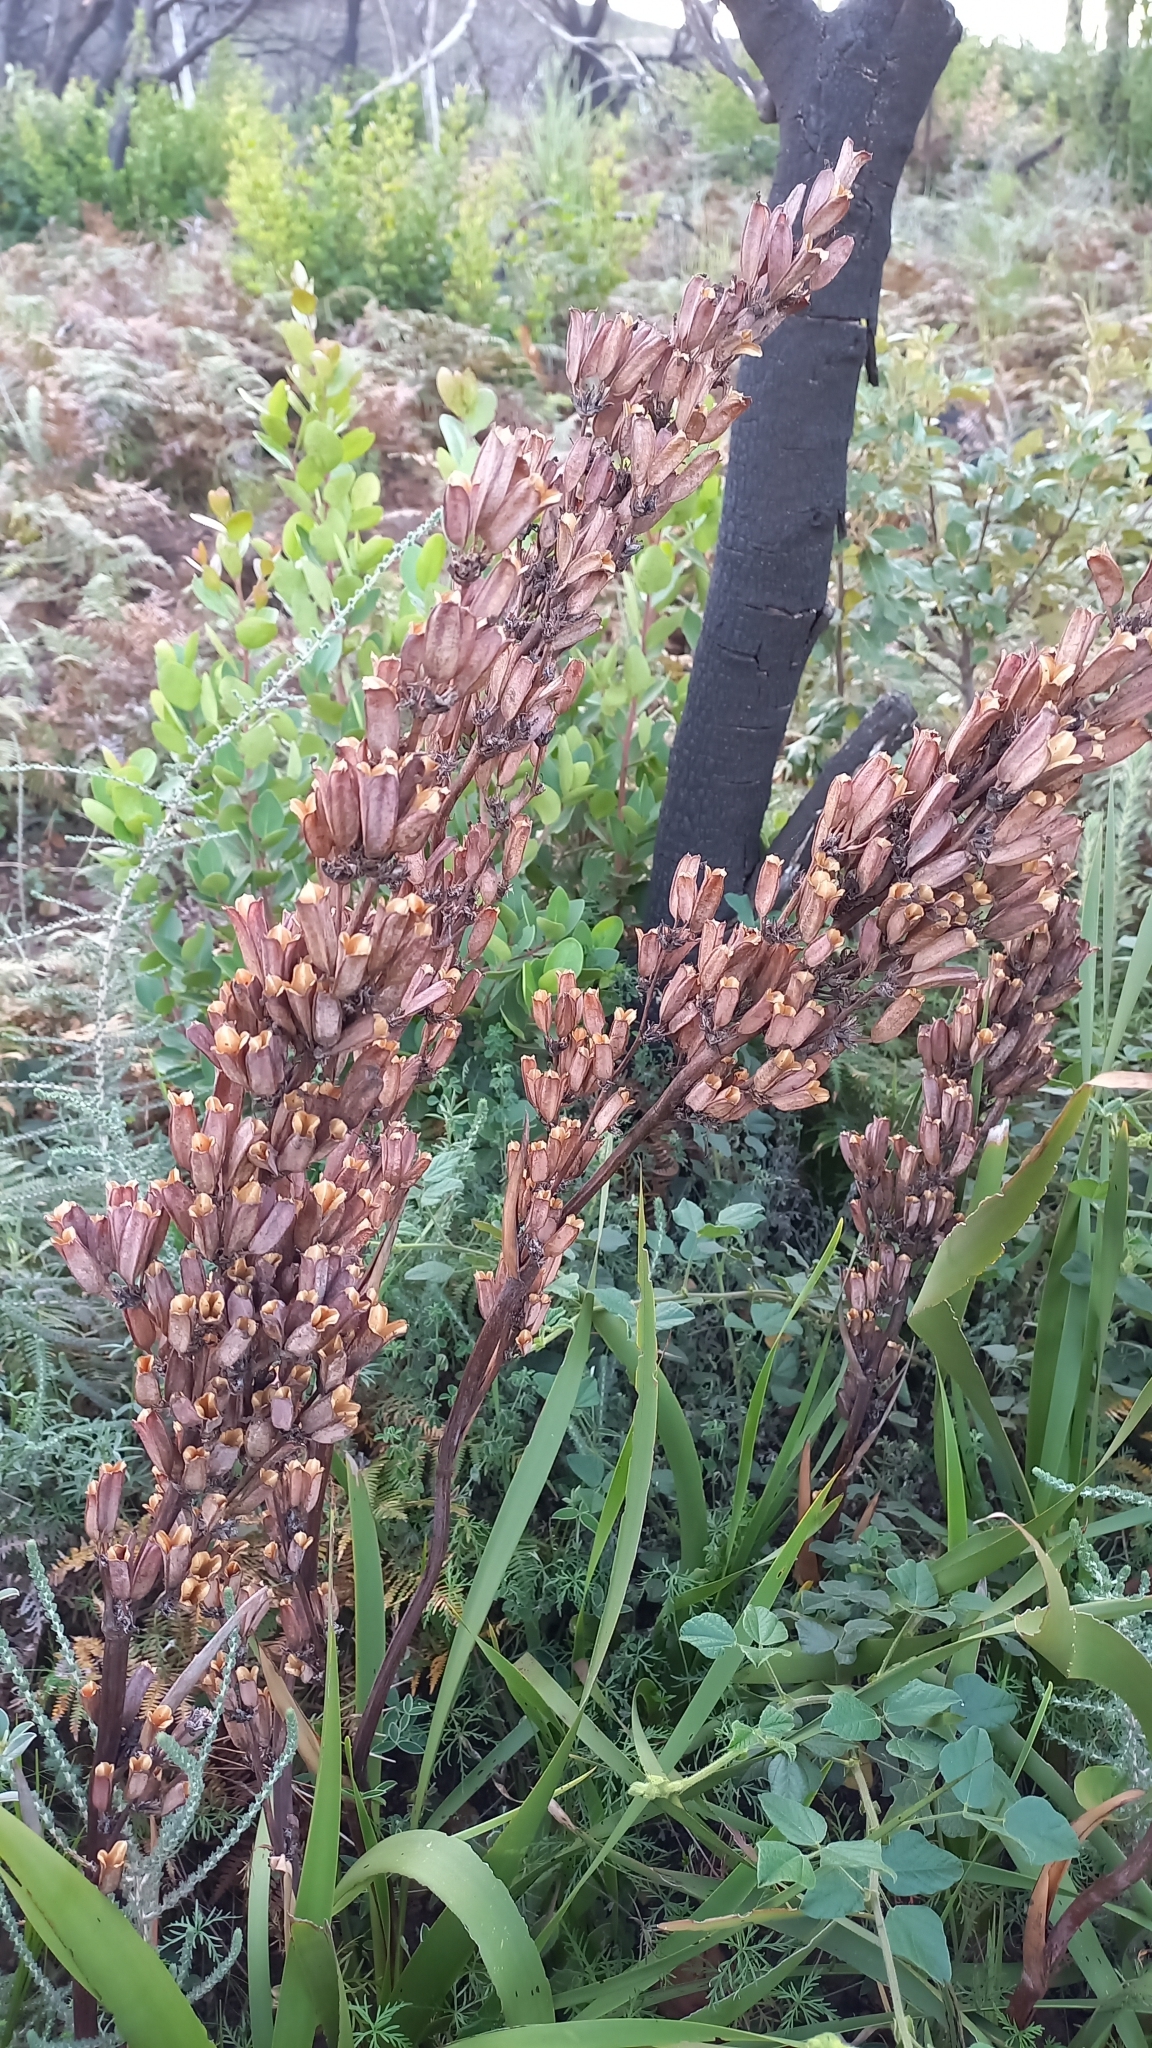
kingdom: Plantae
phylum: Tracheophyta
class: Liliopsida
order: Asparagales
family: Iridaceae
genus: Aristea
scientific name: Aristea bakeri
